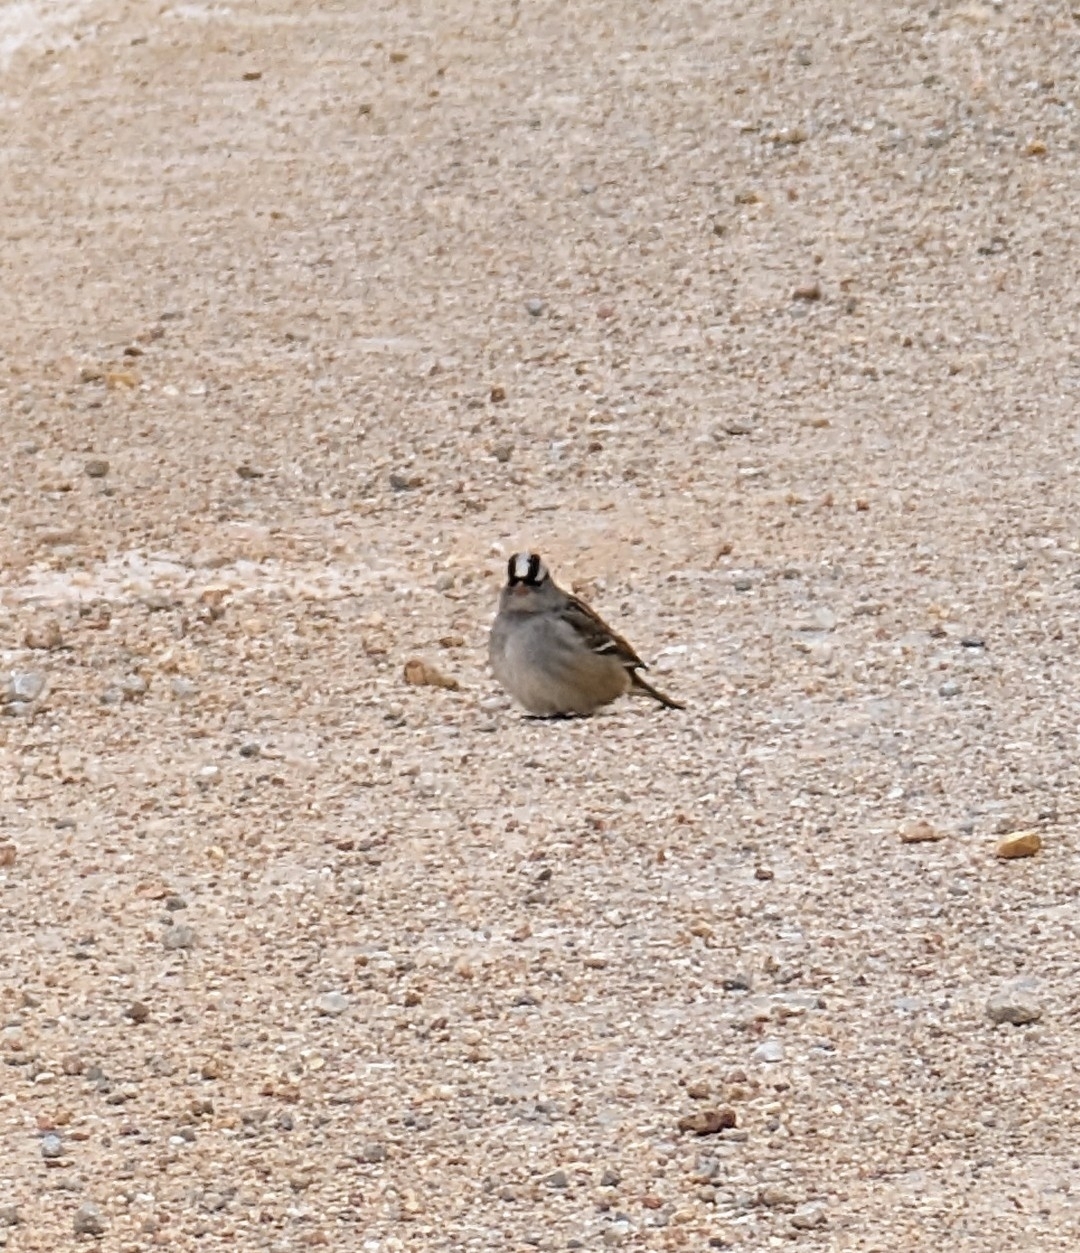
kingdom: Animalia
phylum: Chordata
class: Aves
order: Passeriformes
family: Passerellidae
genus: Zonotrichia
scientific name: Zonotrichia leucophrys
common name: White-crowned sparrow
